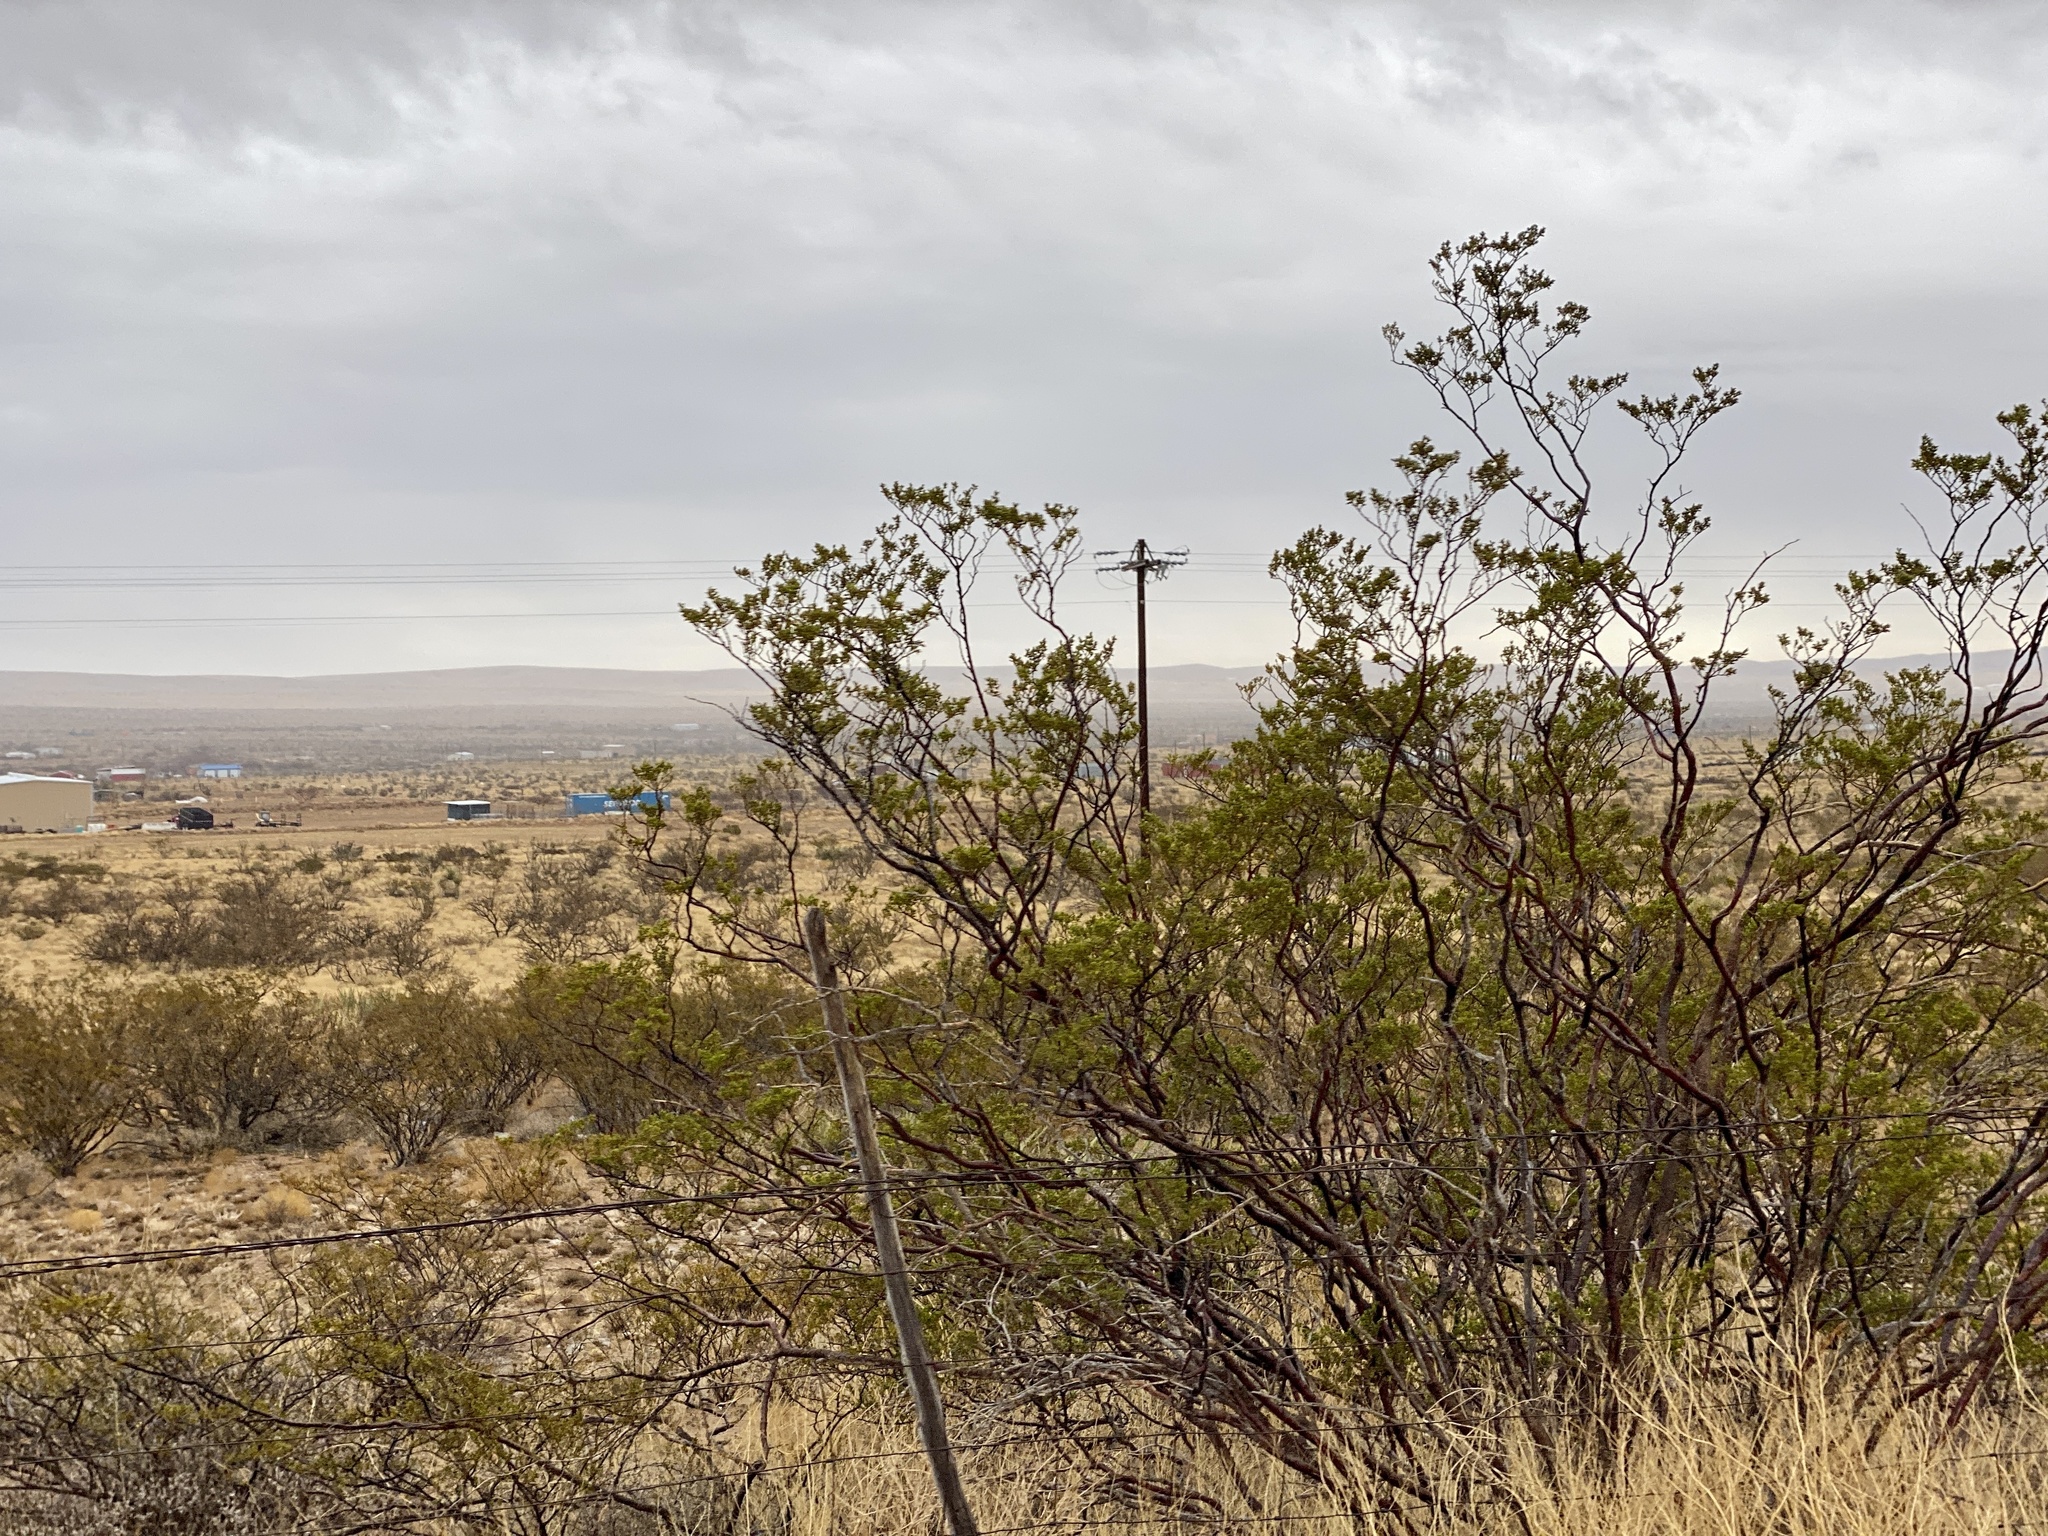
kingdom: Plantae
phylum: Tracheophyta
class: Magnoliopsida
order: Zygophyllales
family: Zygophyllaceae
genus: Larrea
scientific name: Larrea tridentata
